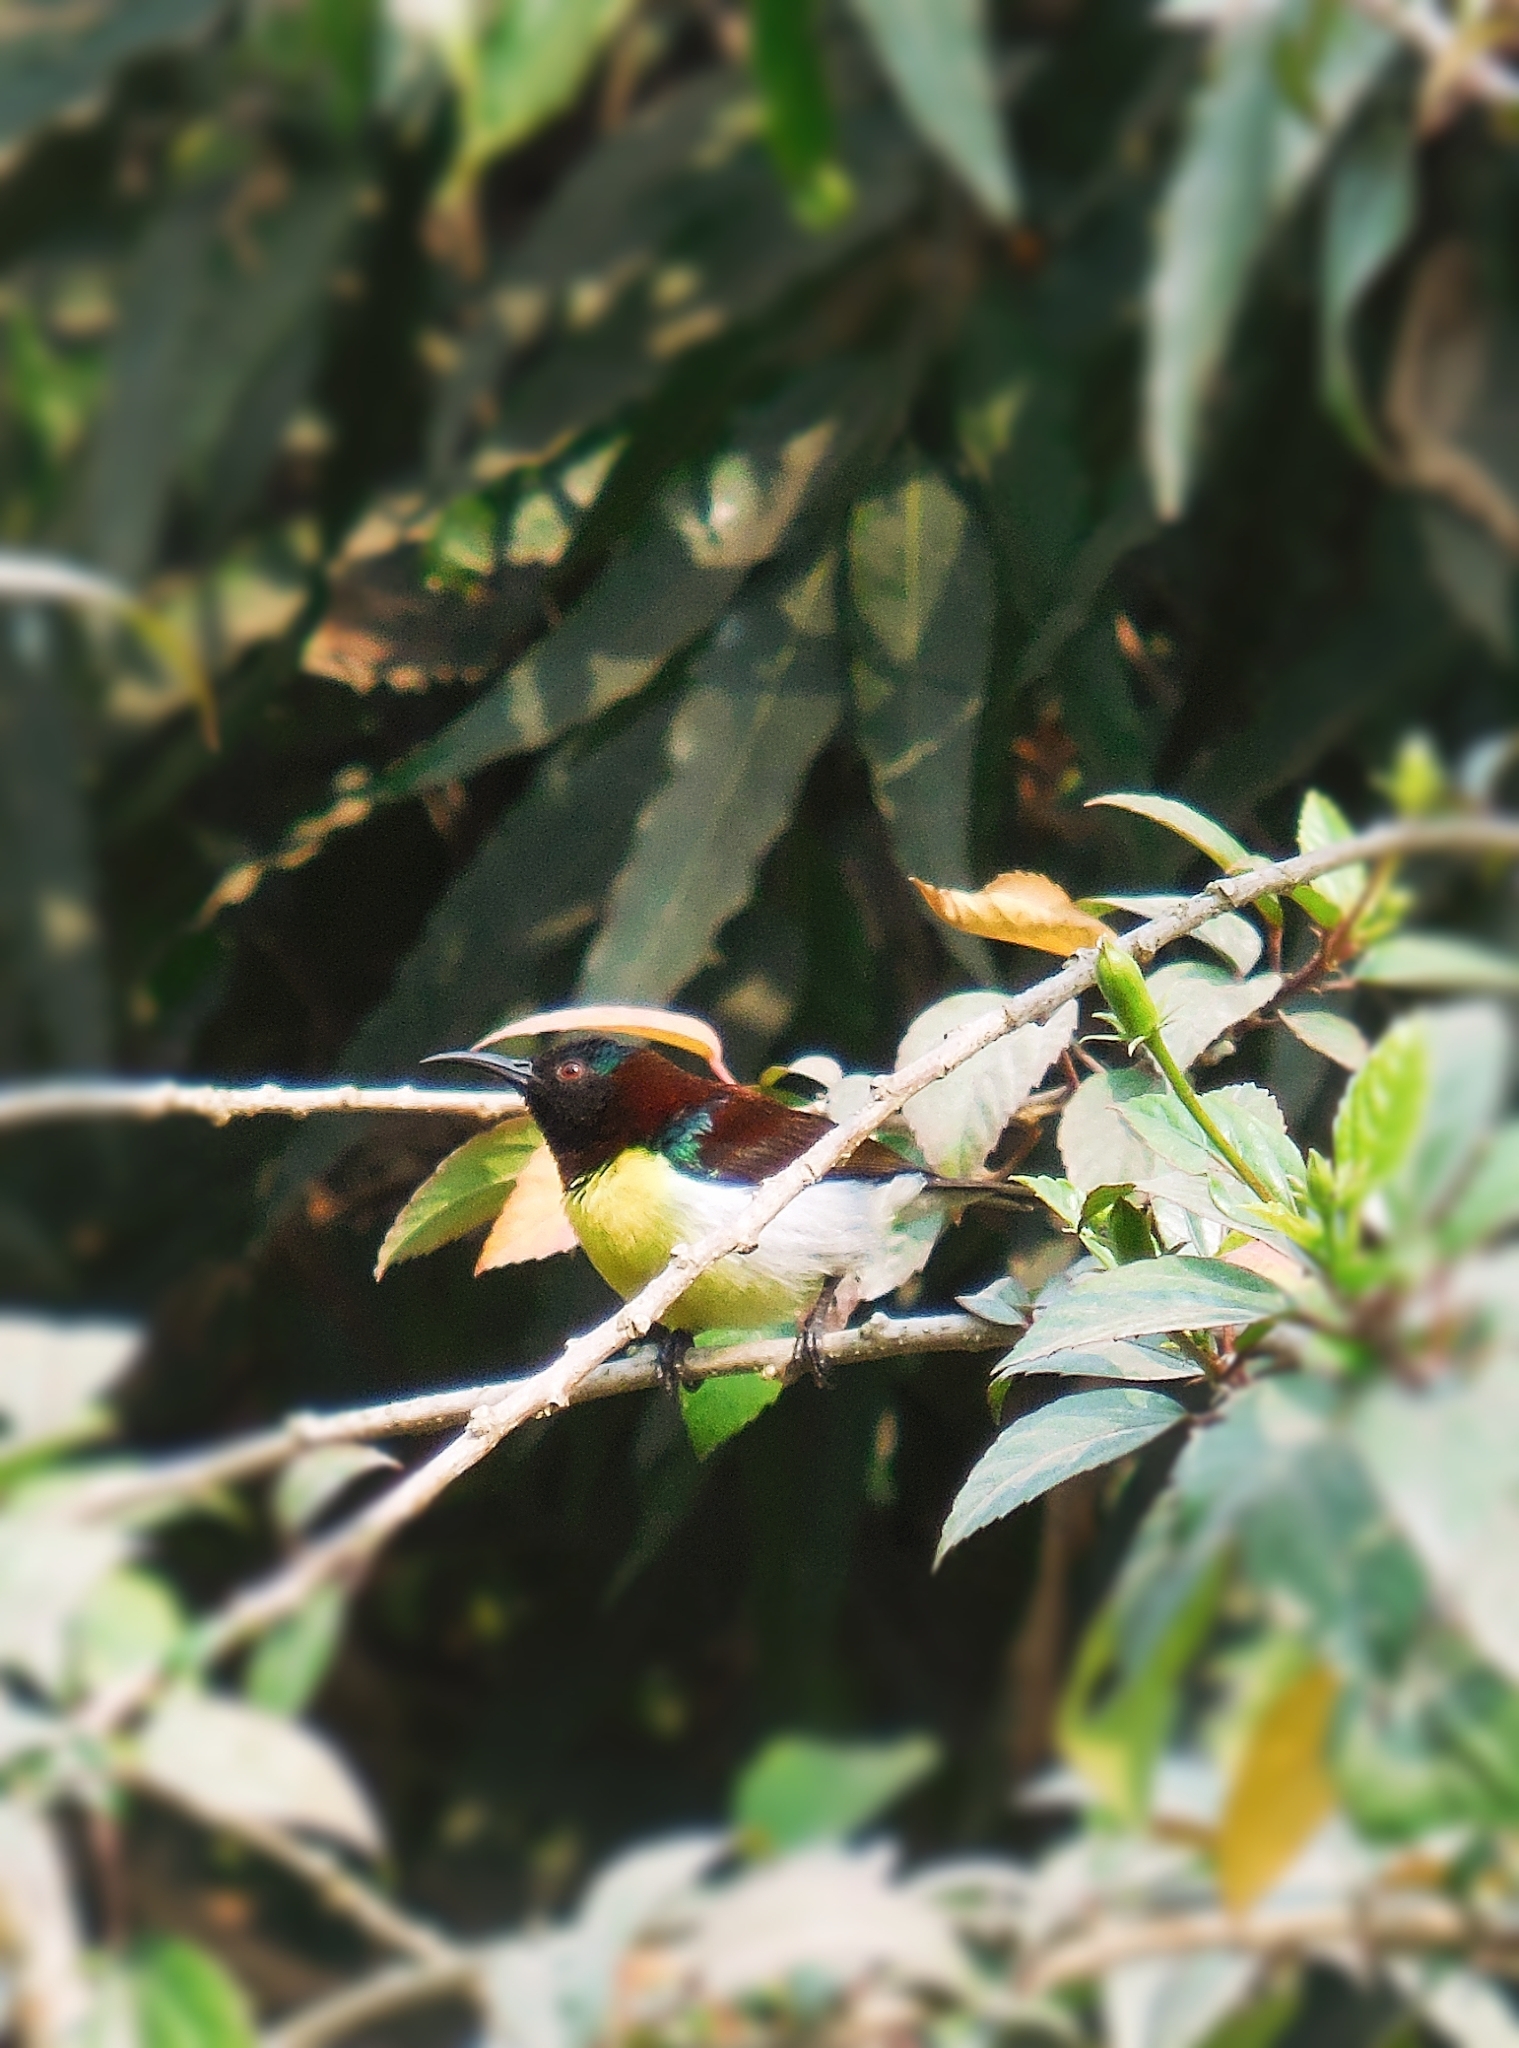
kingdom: Animalia
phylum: Chordata
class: Aves
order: Passeriformes
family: Nectariniidae
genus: Leptocoma
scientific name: Leptocoma zeylonica
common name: Purple-rumped sunbird
